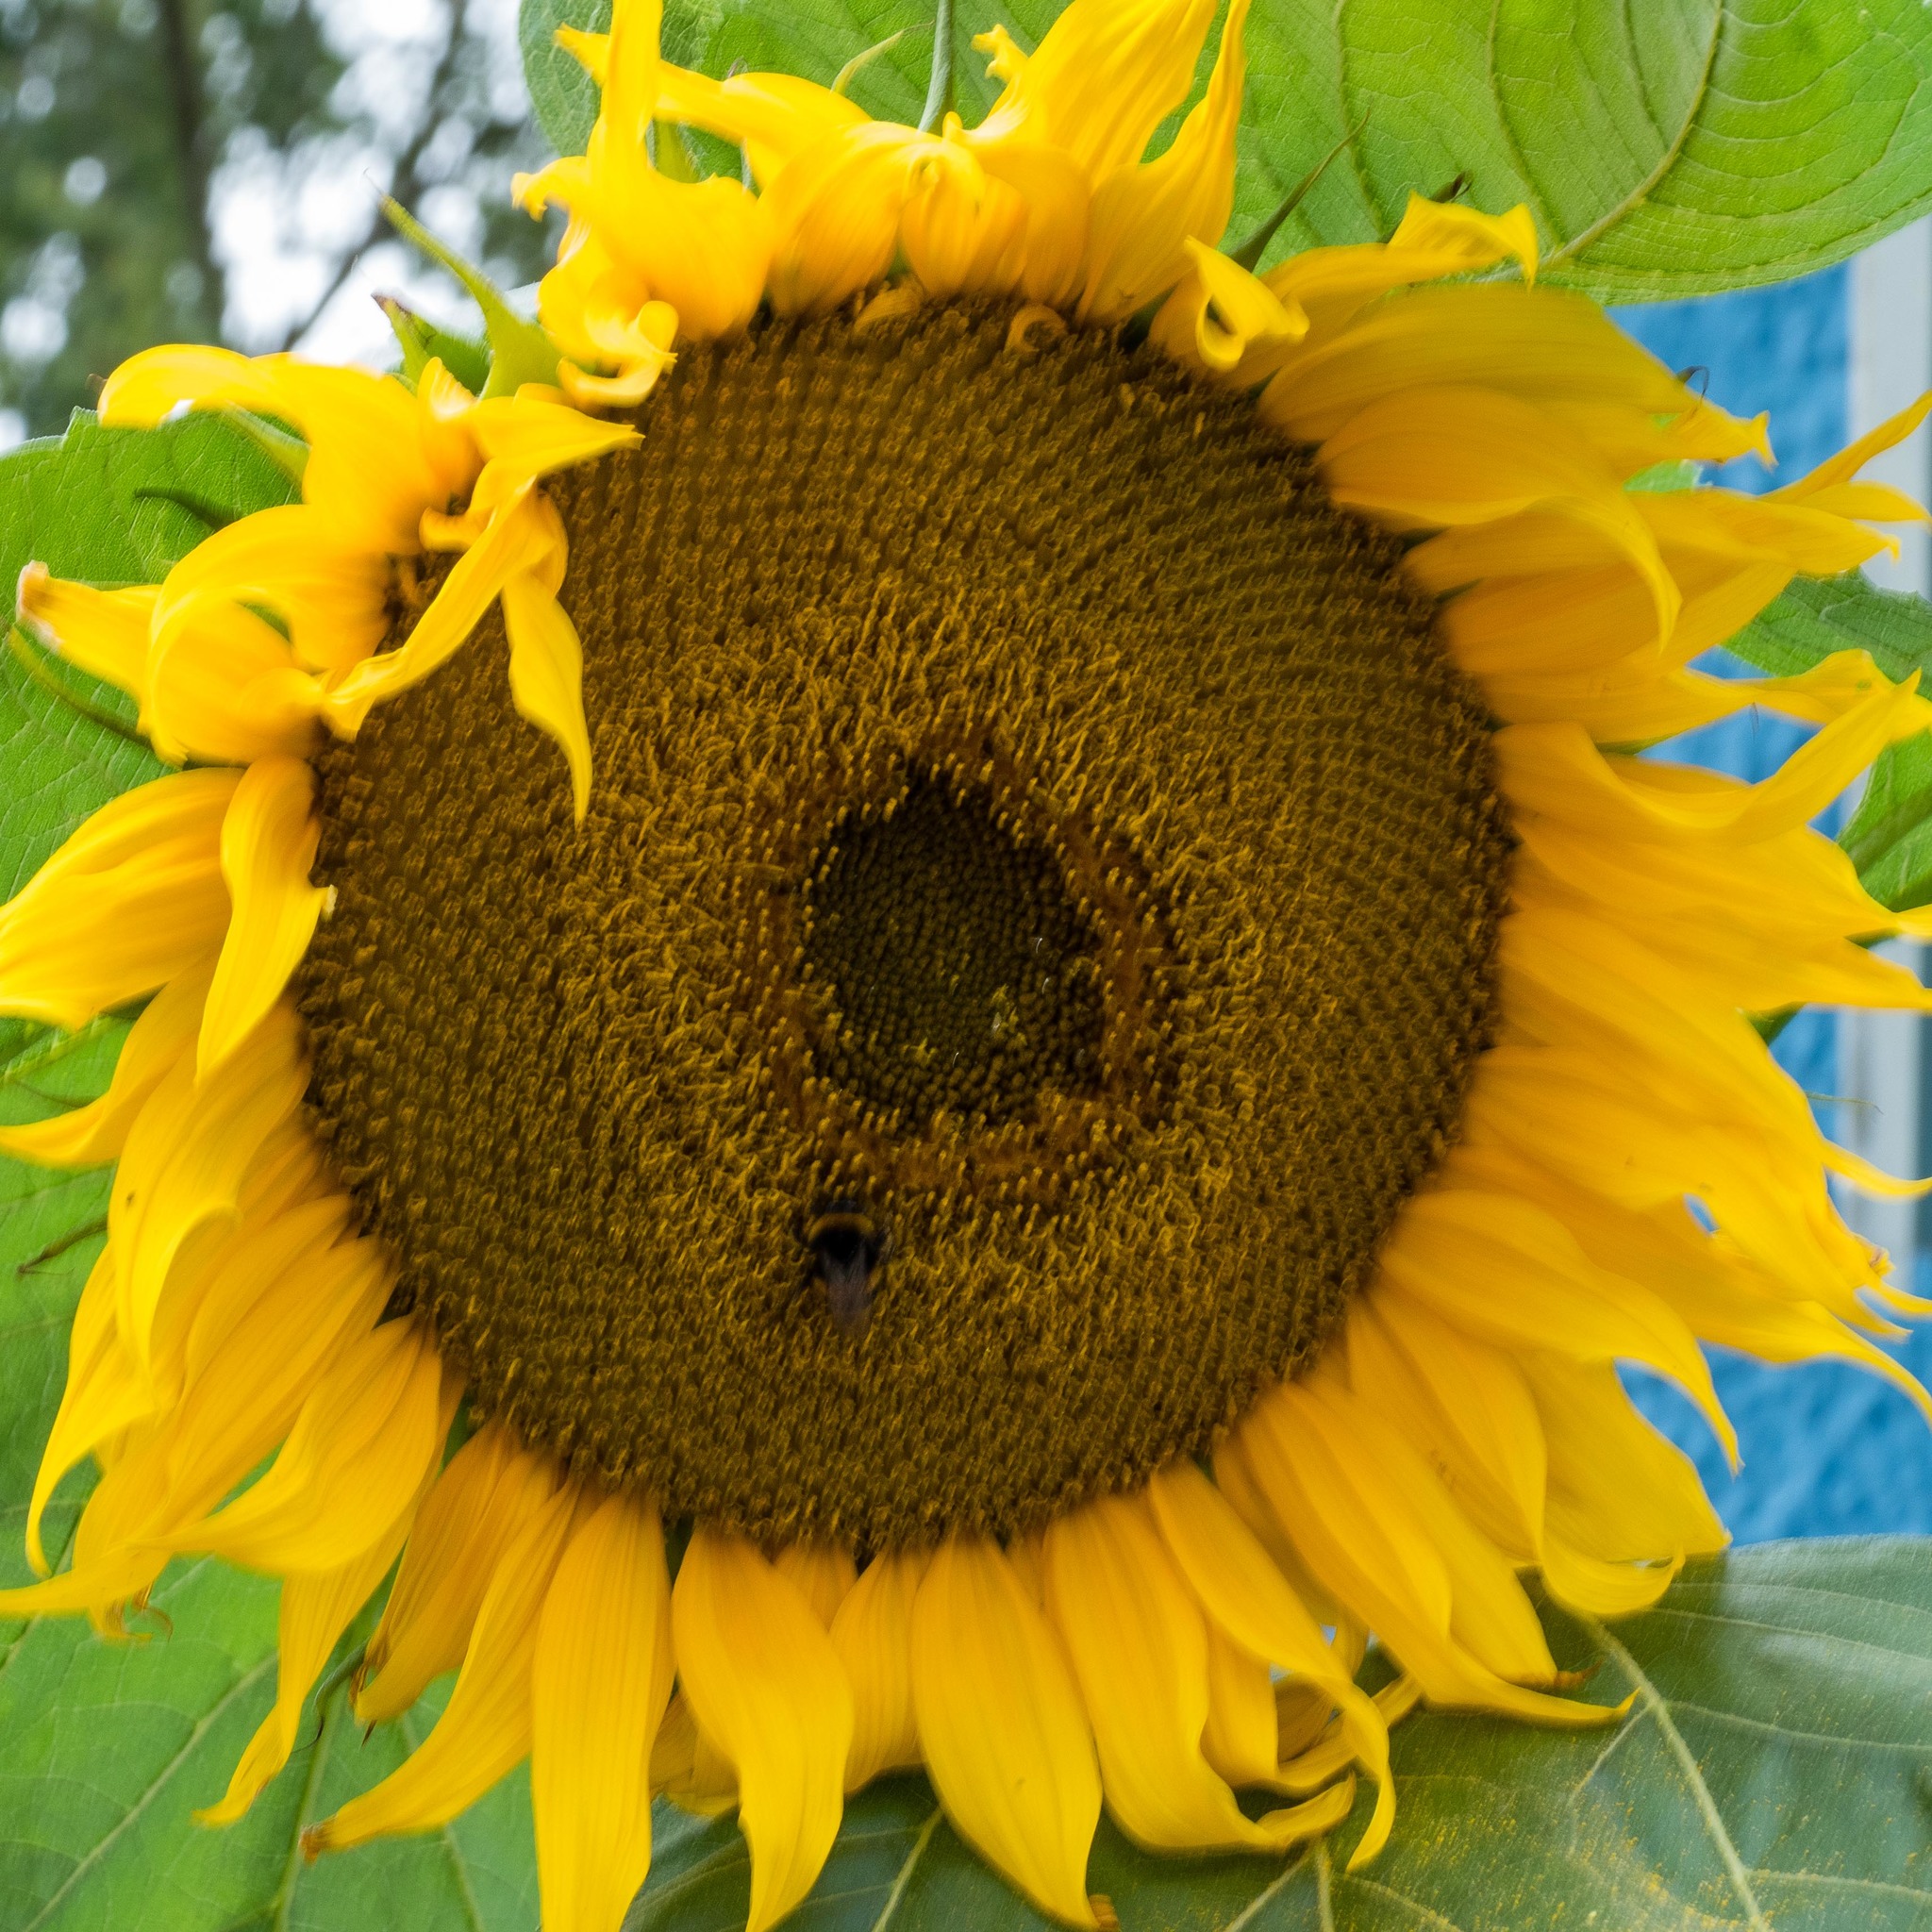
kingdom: Plantae
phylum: Tracheophyta
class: Magnoliopsida
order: Asterales
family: Asteraceae
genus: Helianthus
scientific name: Helianthus annuus
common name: Sunflower
